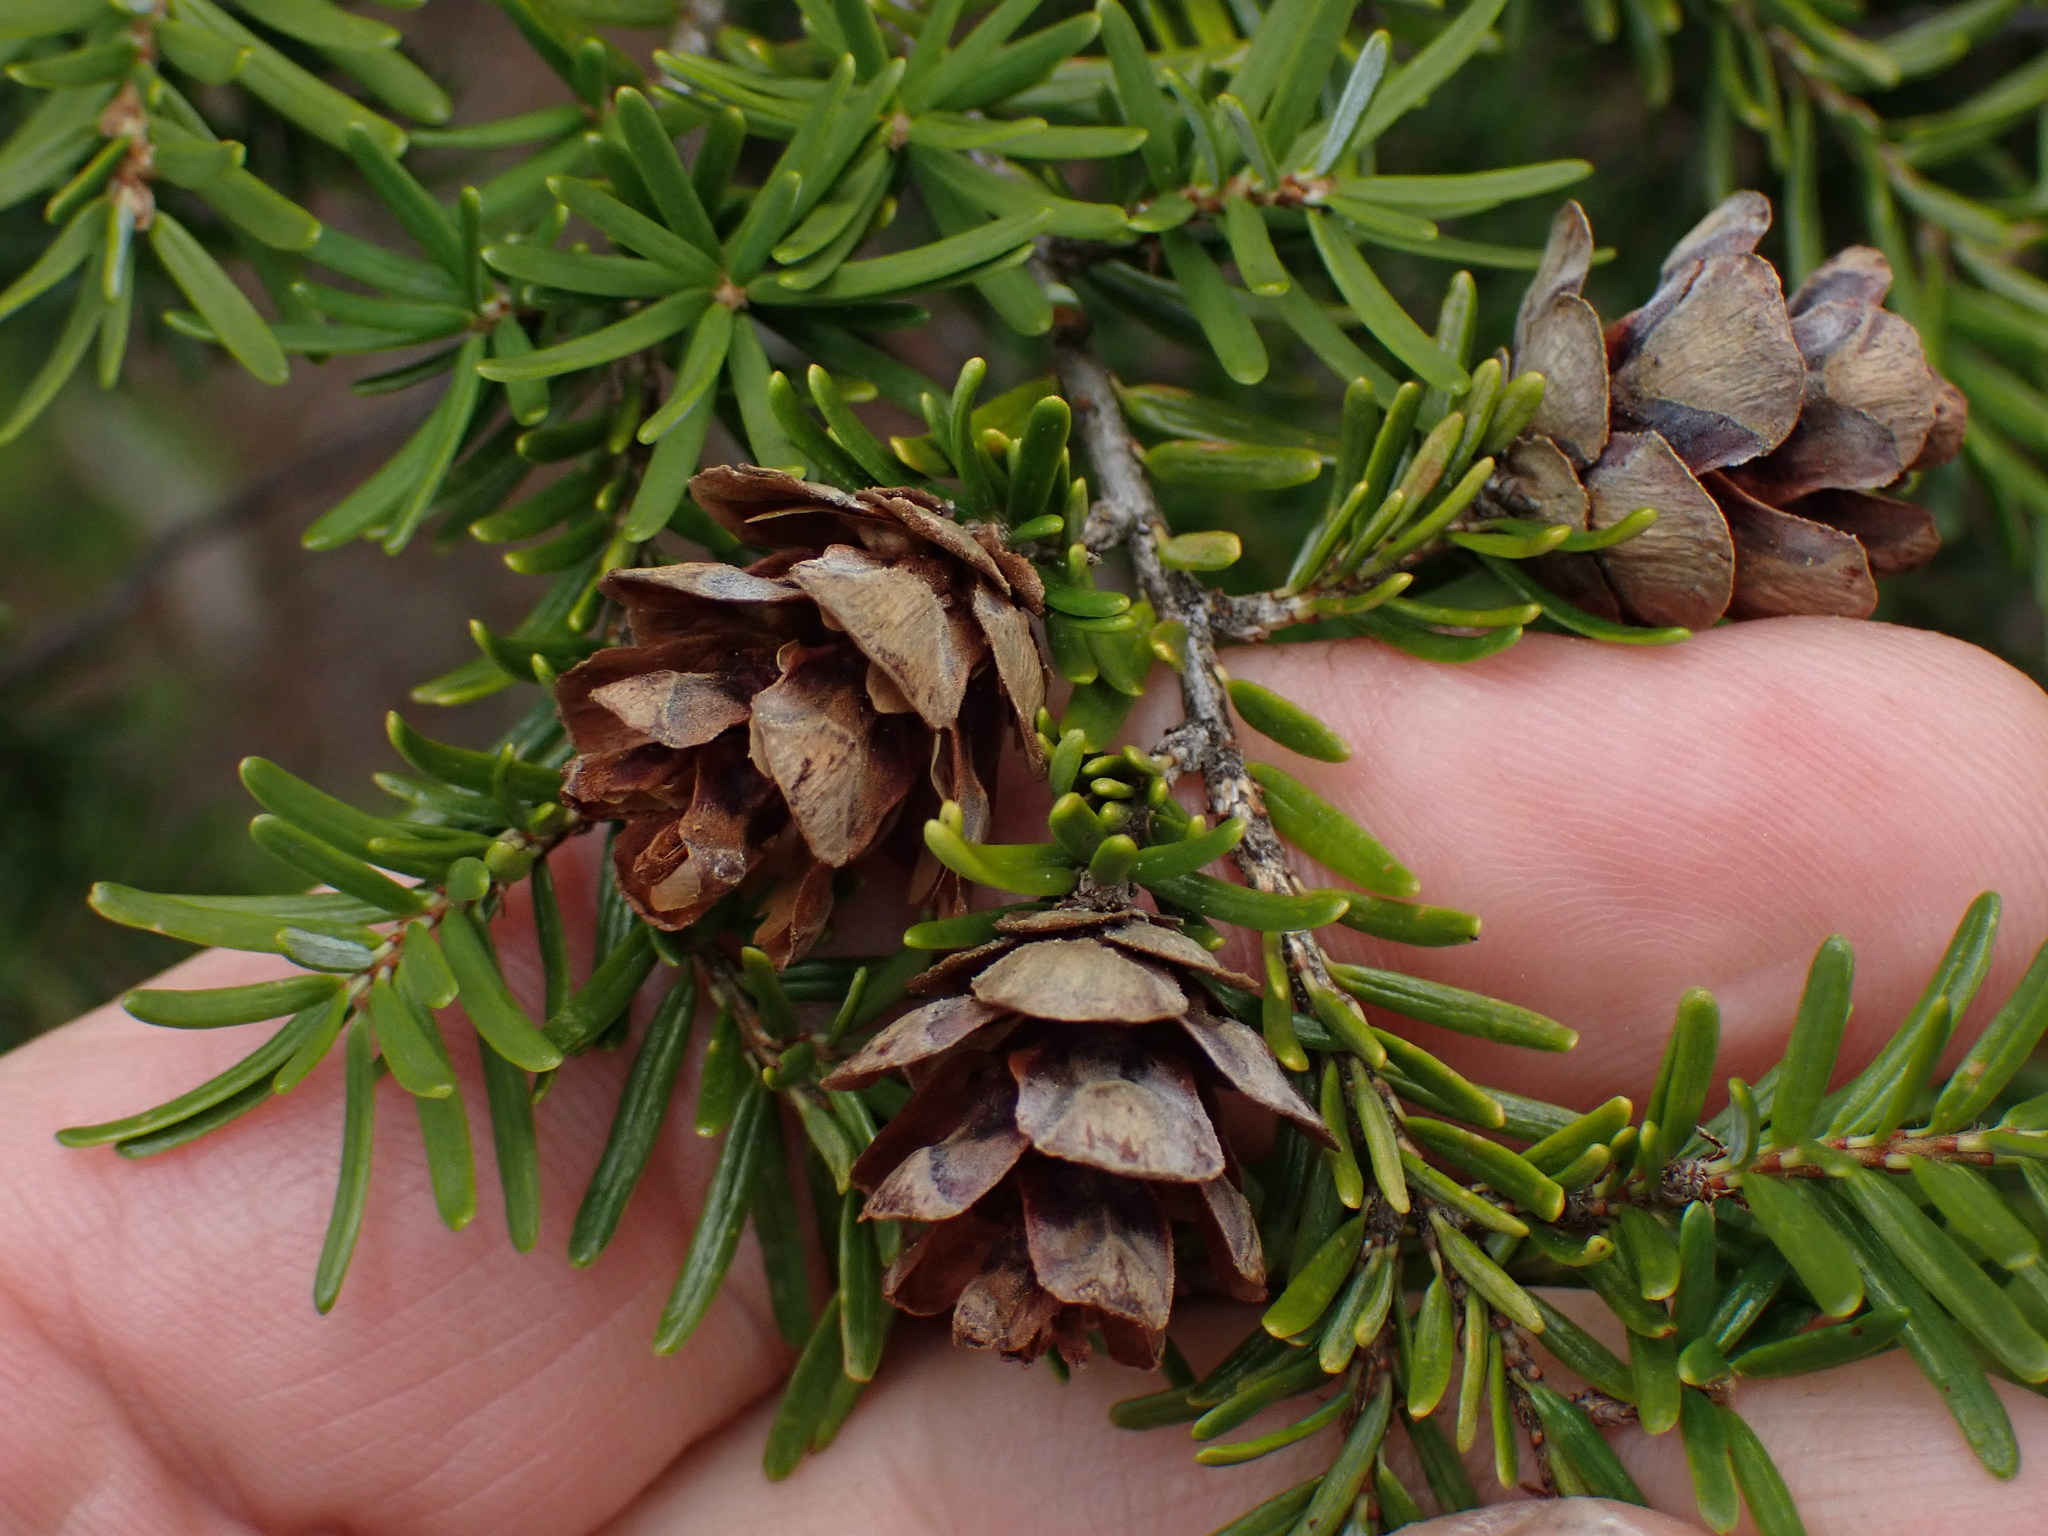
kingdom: Plantae
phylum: Tracheophyta
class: Pinopsida
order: Pinales
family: Pinaceae
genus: Tsuga
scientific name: Tsuga heterophylla
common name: Western hemlock
